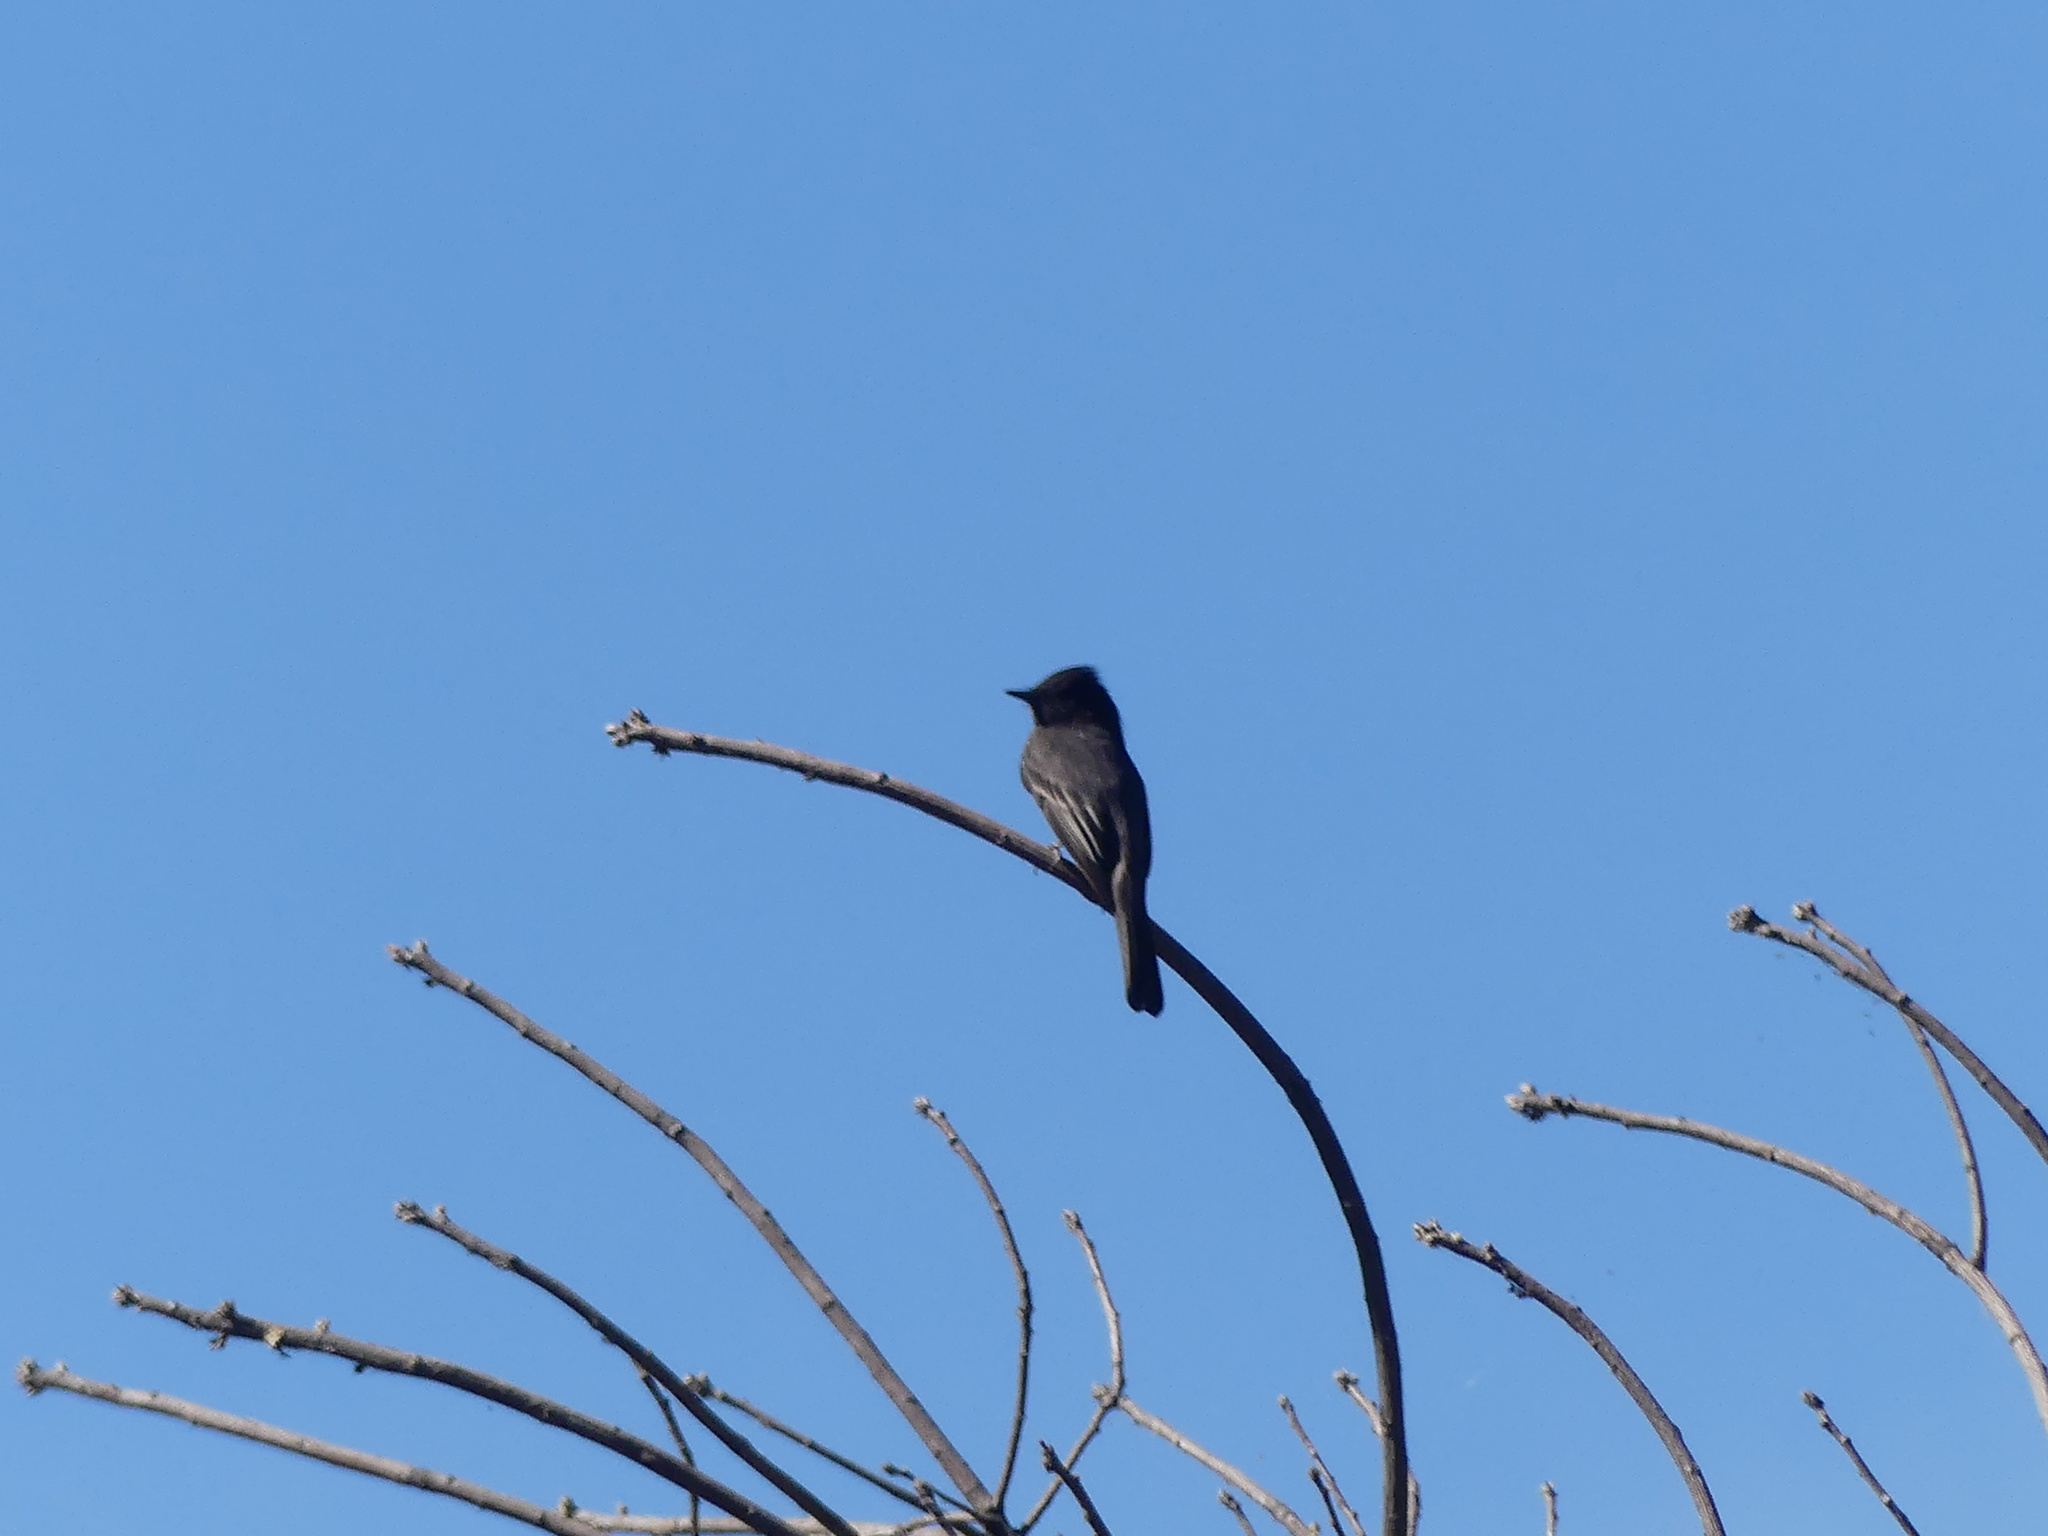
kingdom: Animalia
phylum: Chordata
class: Aves
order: Passeriformes
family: Tyrannidae
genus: Sayornis
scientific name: Sayornis nigricans
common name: Black phoebe
